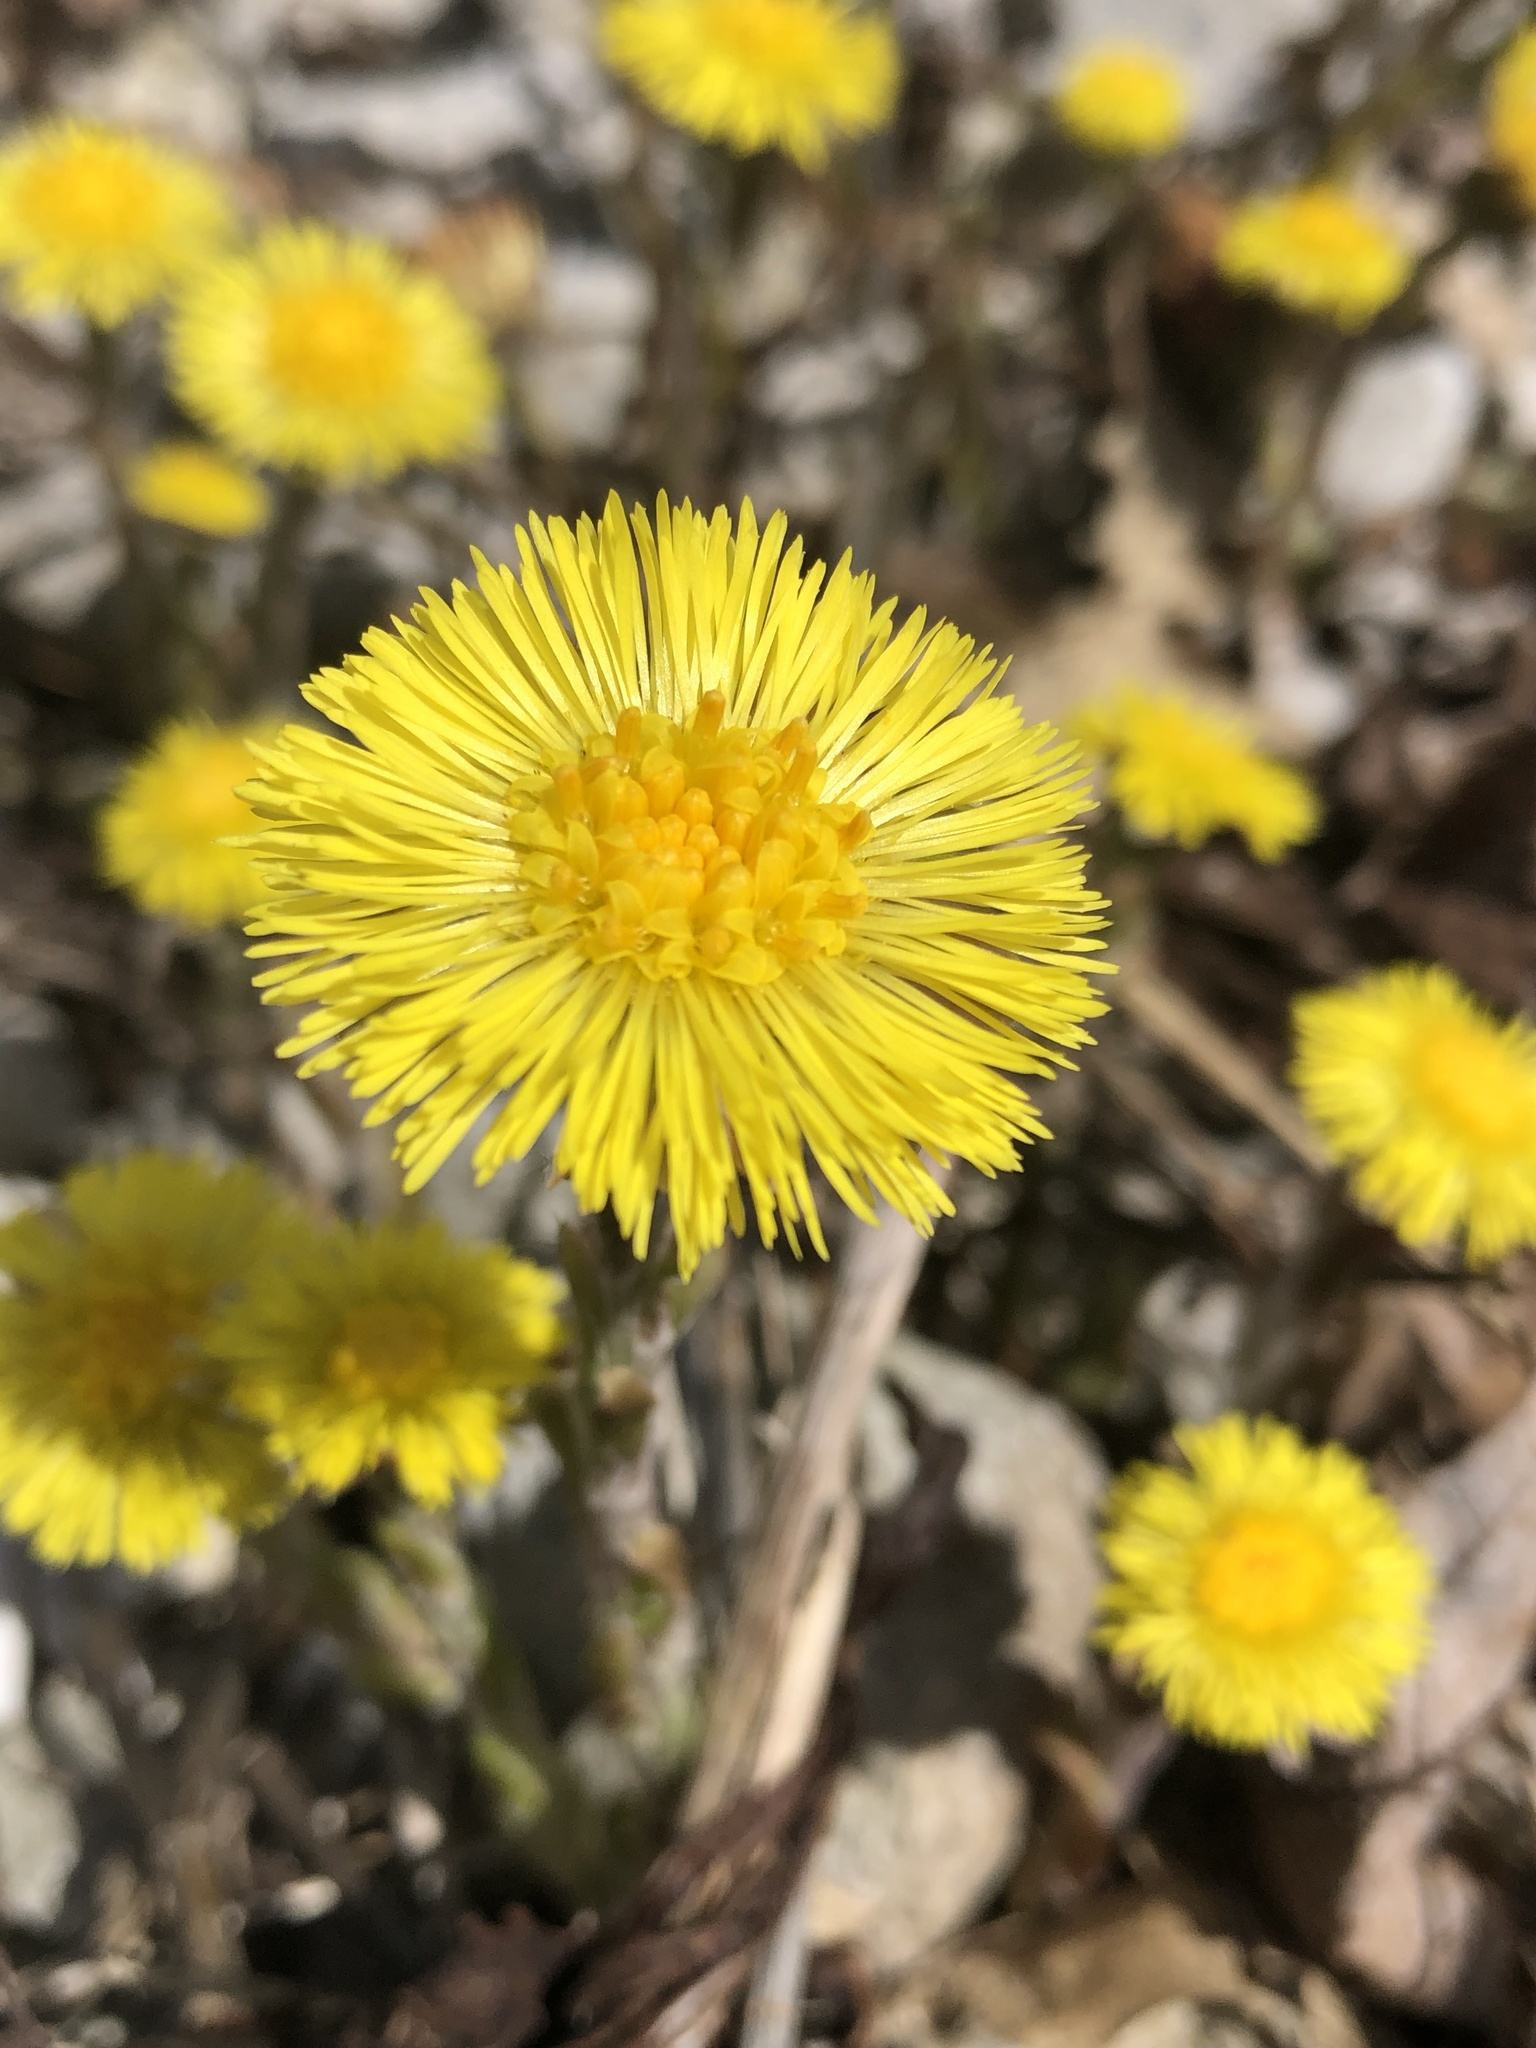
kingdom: Plantae
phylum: Tracheophyta
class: Magnoliopsida
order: Asterales
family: Asteraceae
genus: Tussilago
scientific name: Tussilago farfara
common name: Coltsfoot
